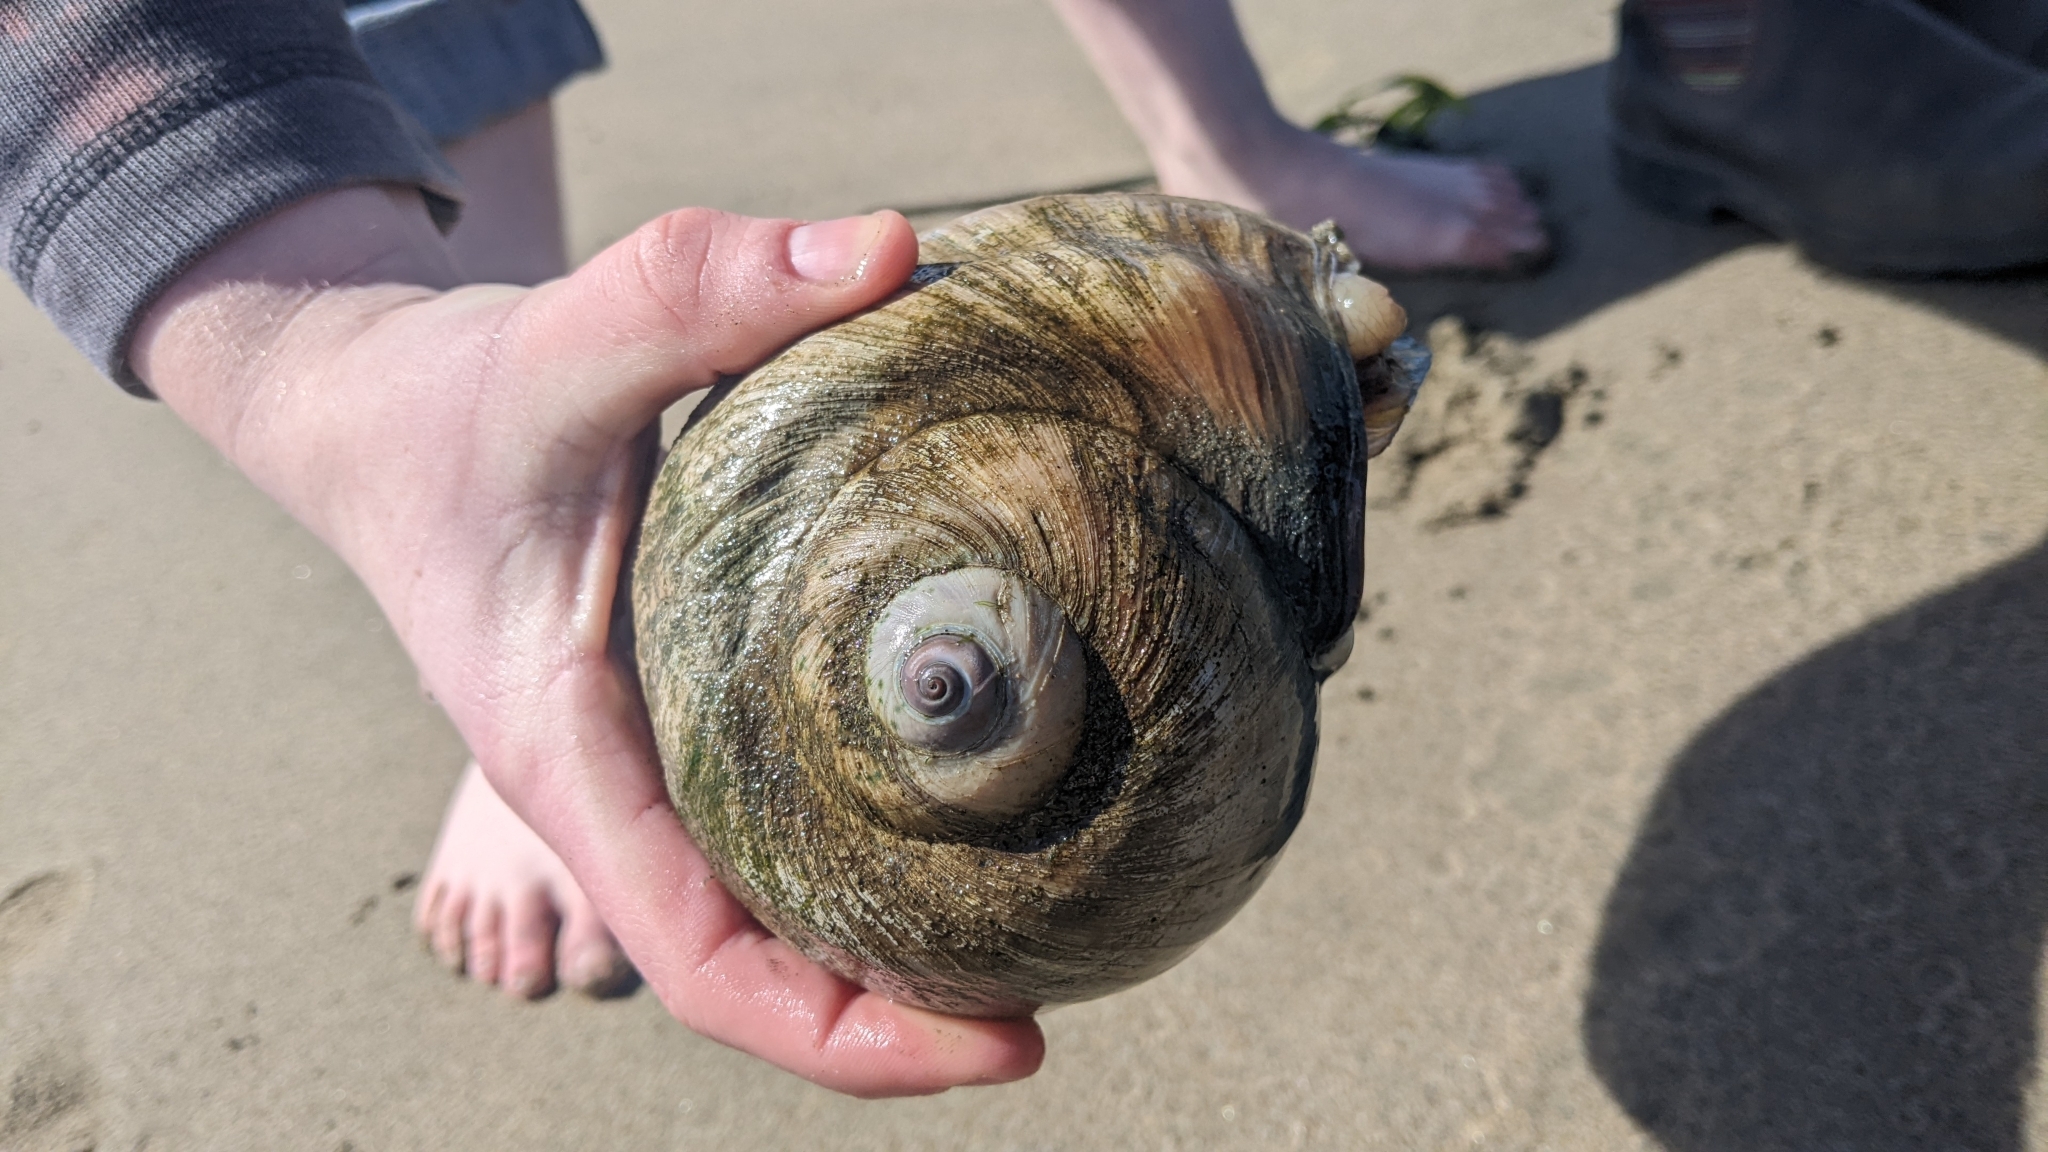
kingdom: Animalia
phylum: Mollusca
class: Gastropoda
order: Littorinimorpha
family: Naticidae
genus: Neverita
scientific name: Neverita lewisii
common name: Lewis' moonsnail
